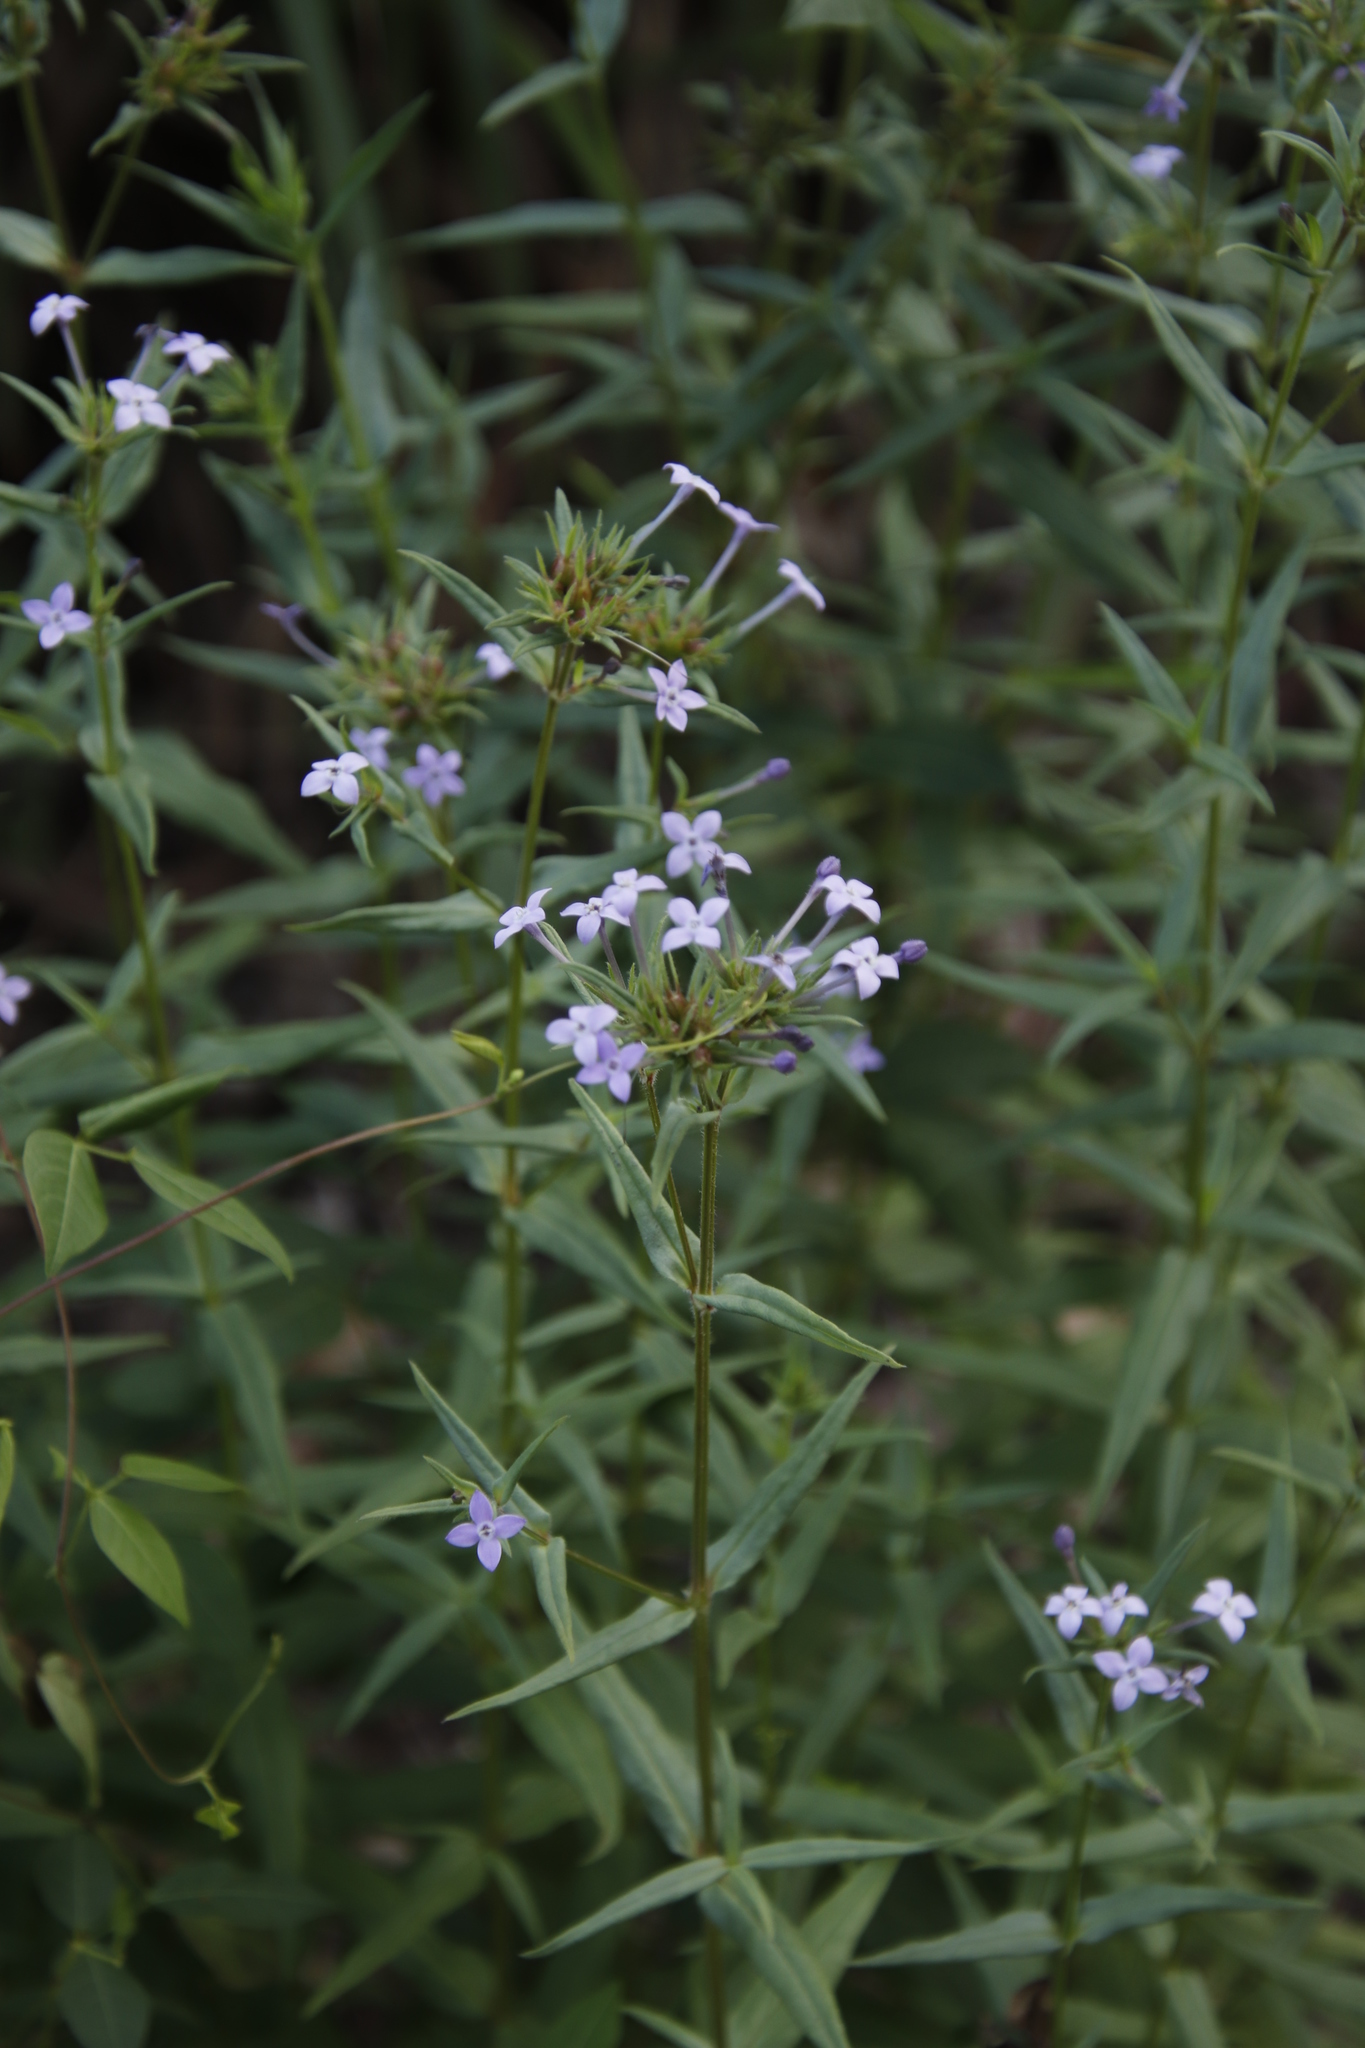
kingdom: Plantae
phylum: Tracheophyta
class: Magnoliopsida
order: Gentianales
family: Rubiaceae
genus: Conostomium
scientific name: Conostomium natalense
